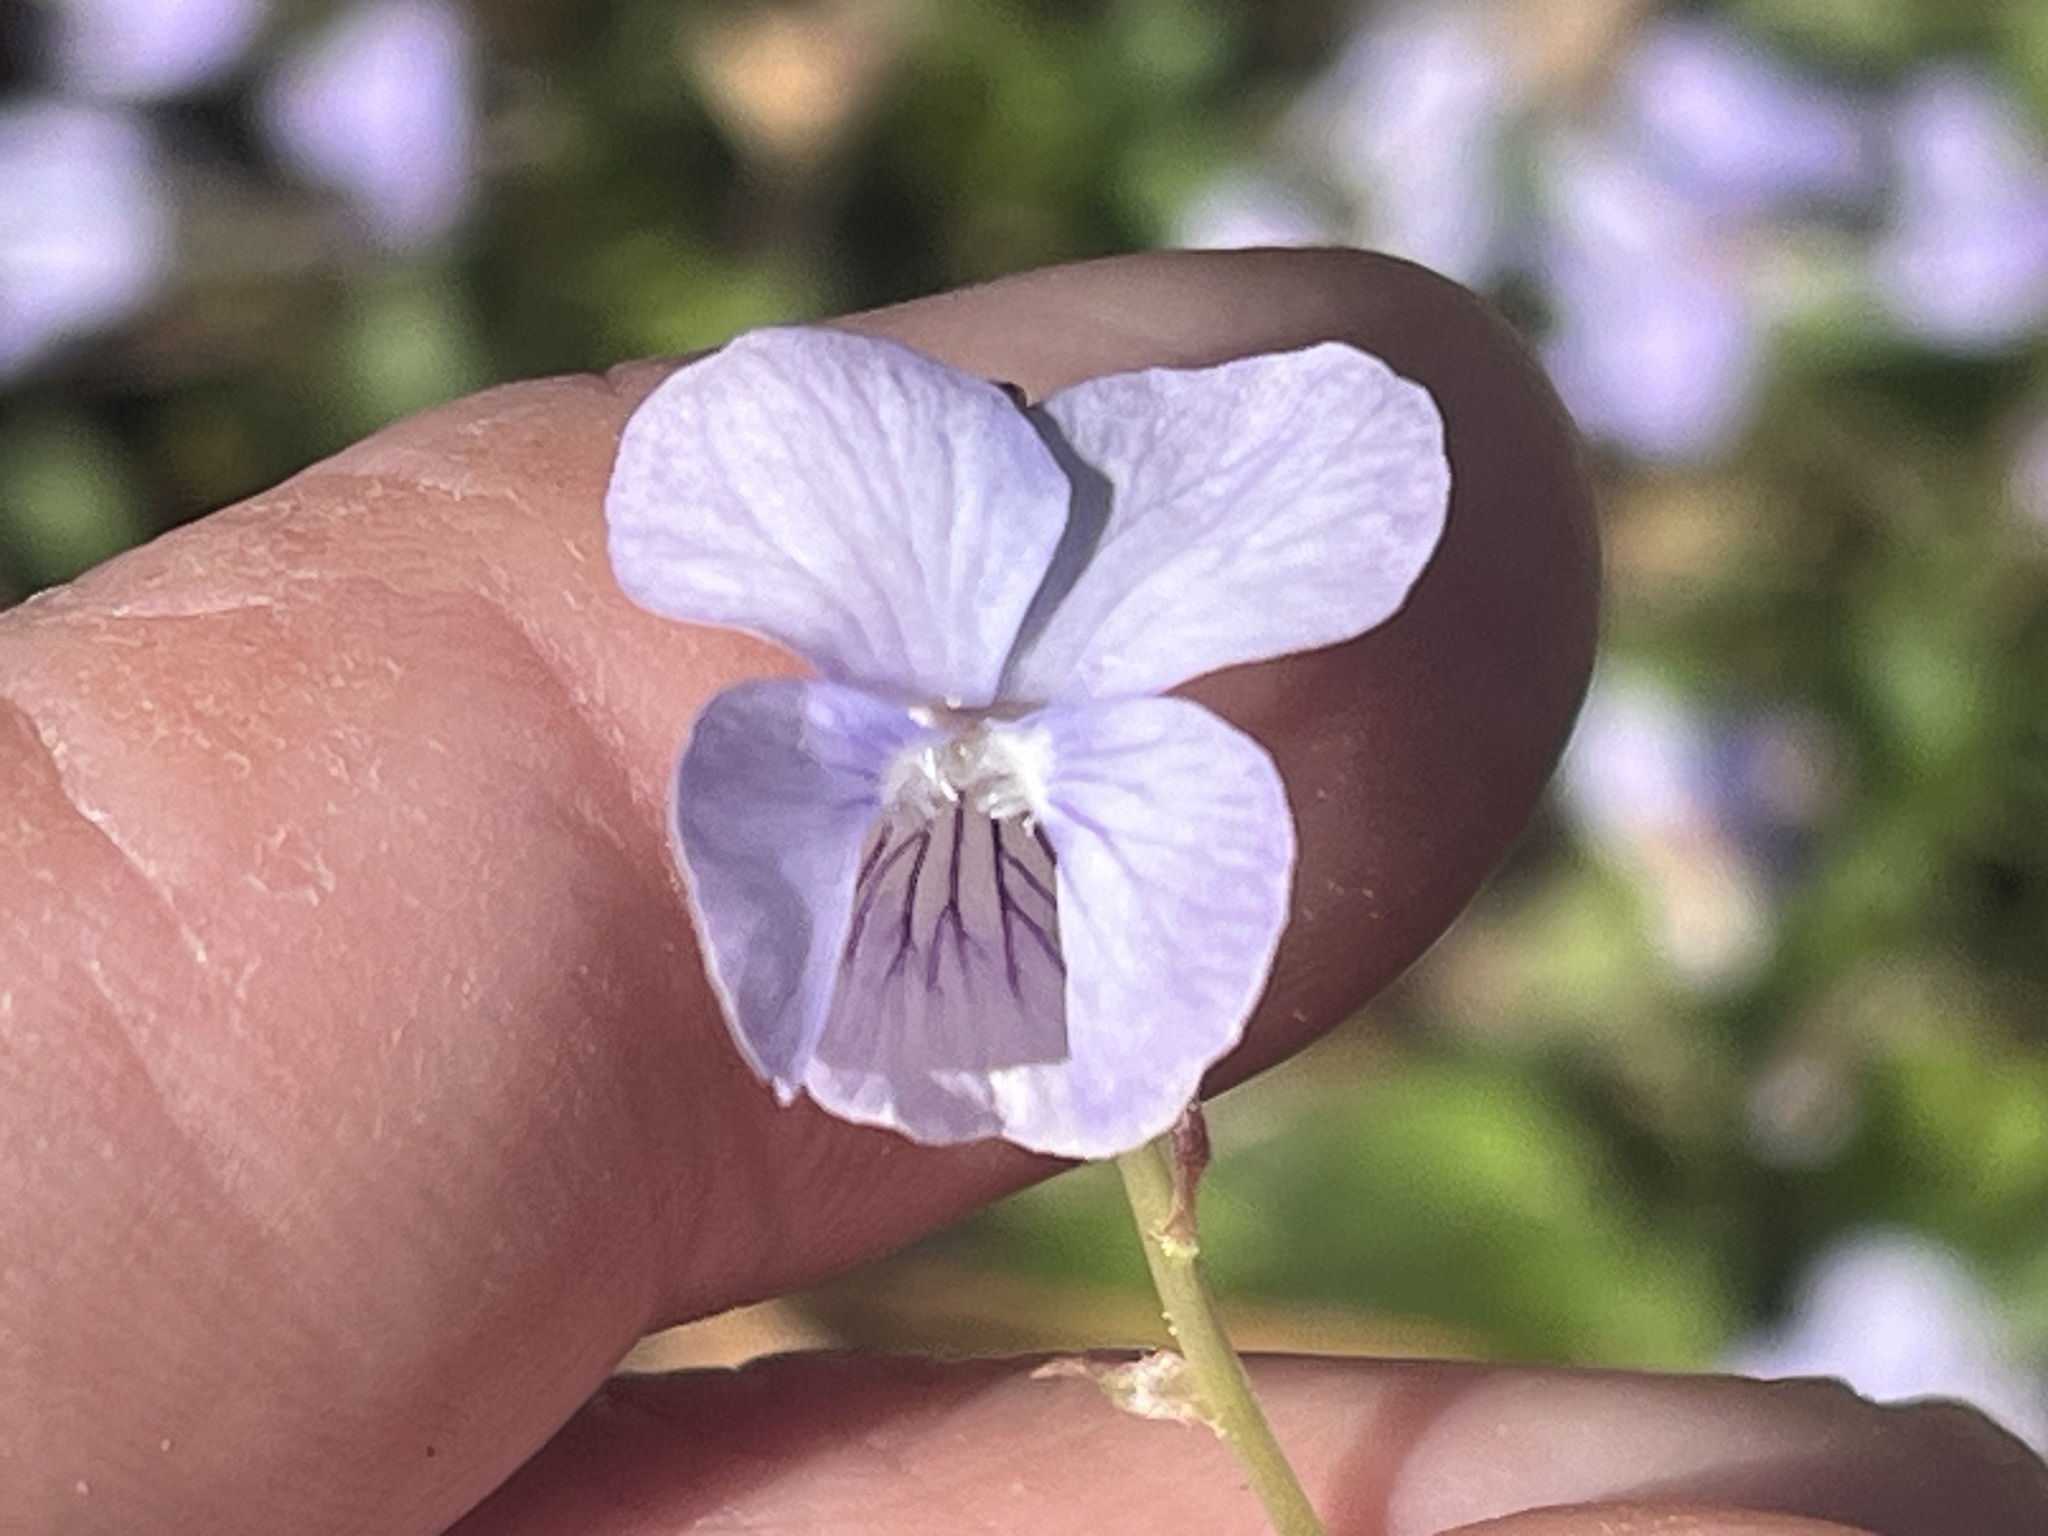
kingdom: Plantae
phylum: Tracheophyta
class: Magnoliopsida
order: Malpighiales
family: Violaceae
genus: Viola
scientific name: Viola walteri
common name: Prostrate southern violet
